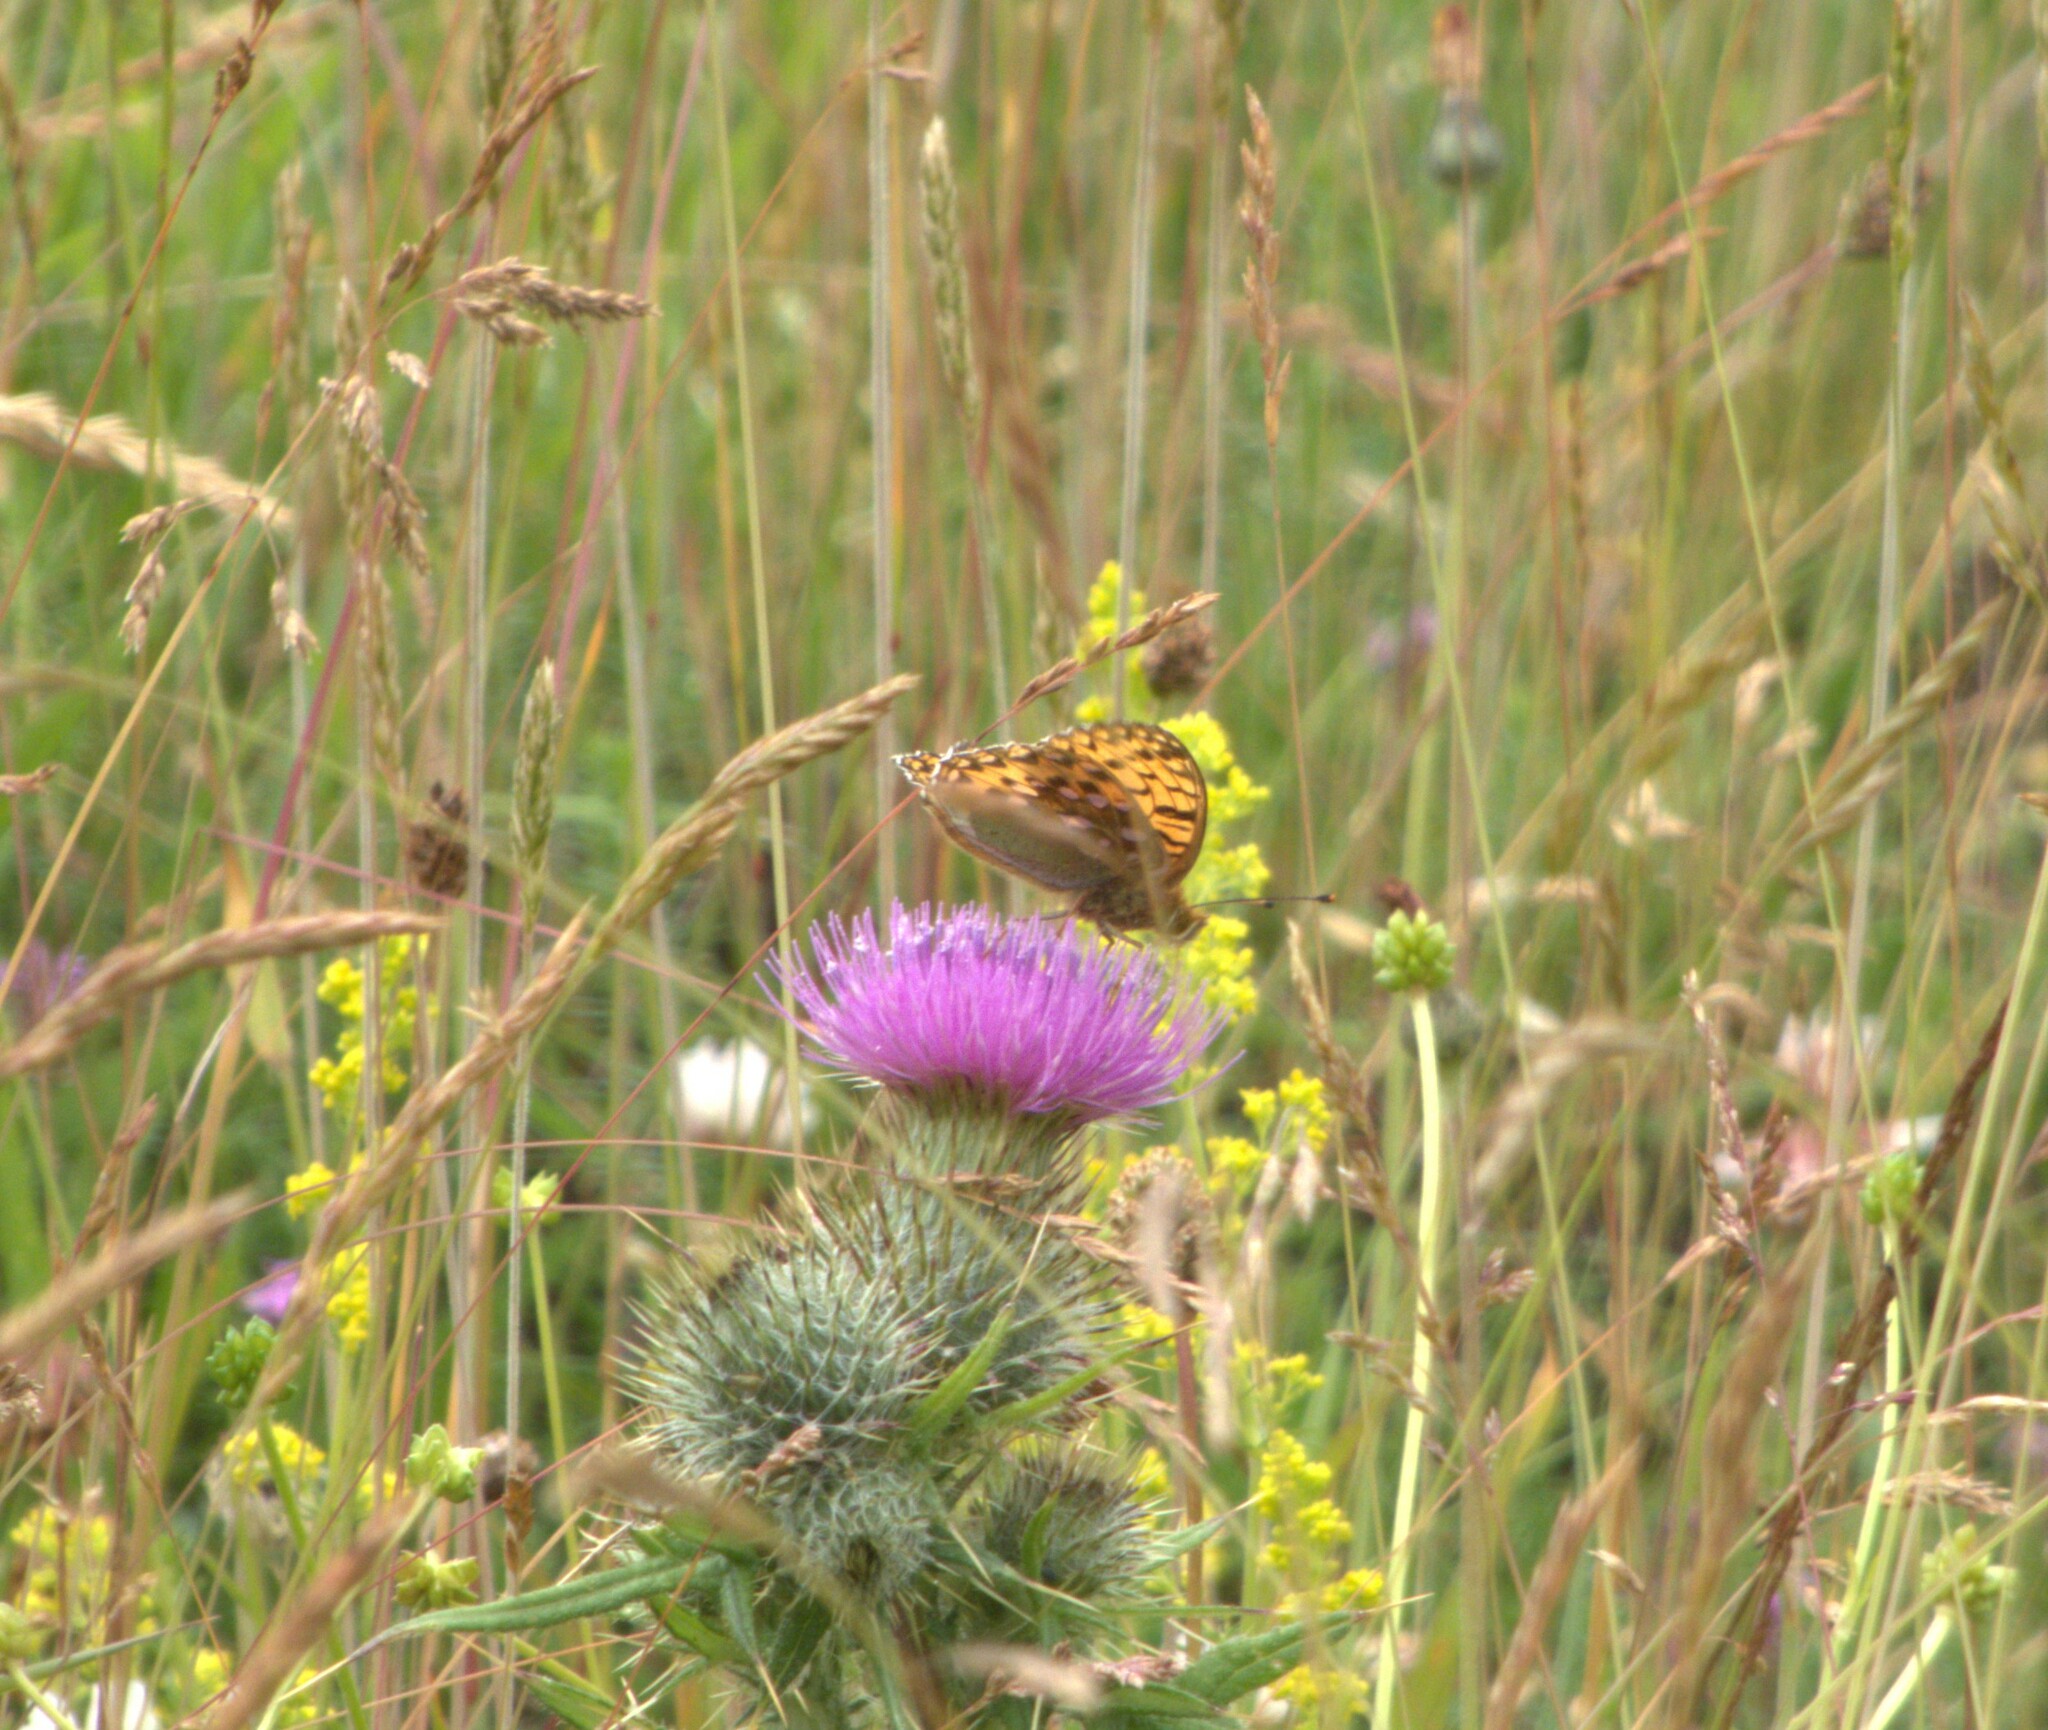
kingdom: Animalia
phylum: Arthropoda
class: Insecta
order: Lepidoptera
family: Nymphalidae
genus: Speyeria
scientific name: Speyeria aglaja
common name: Dark green fritillary
